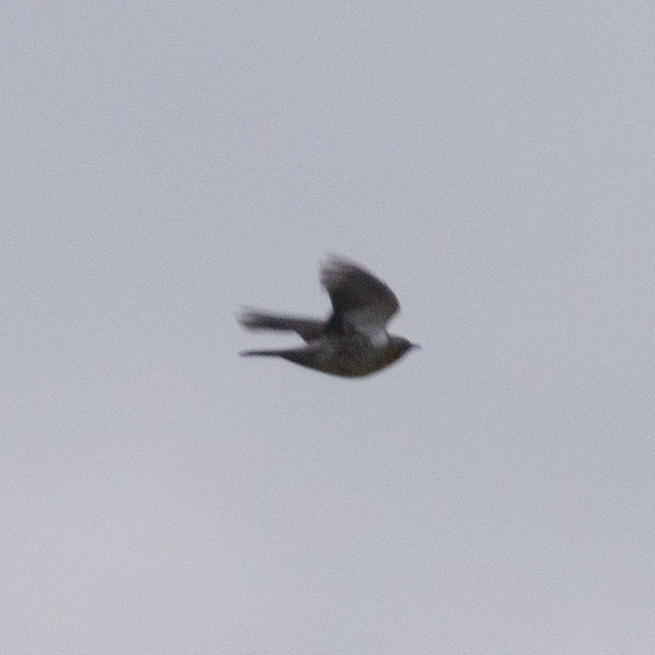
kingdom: Animalia
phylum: Chordata
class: Aves
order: Passeriformes
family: Turdidae
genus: Turdus
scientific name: Turdus pilaris
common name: Fieldfare
